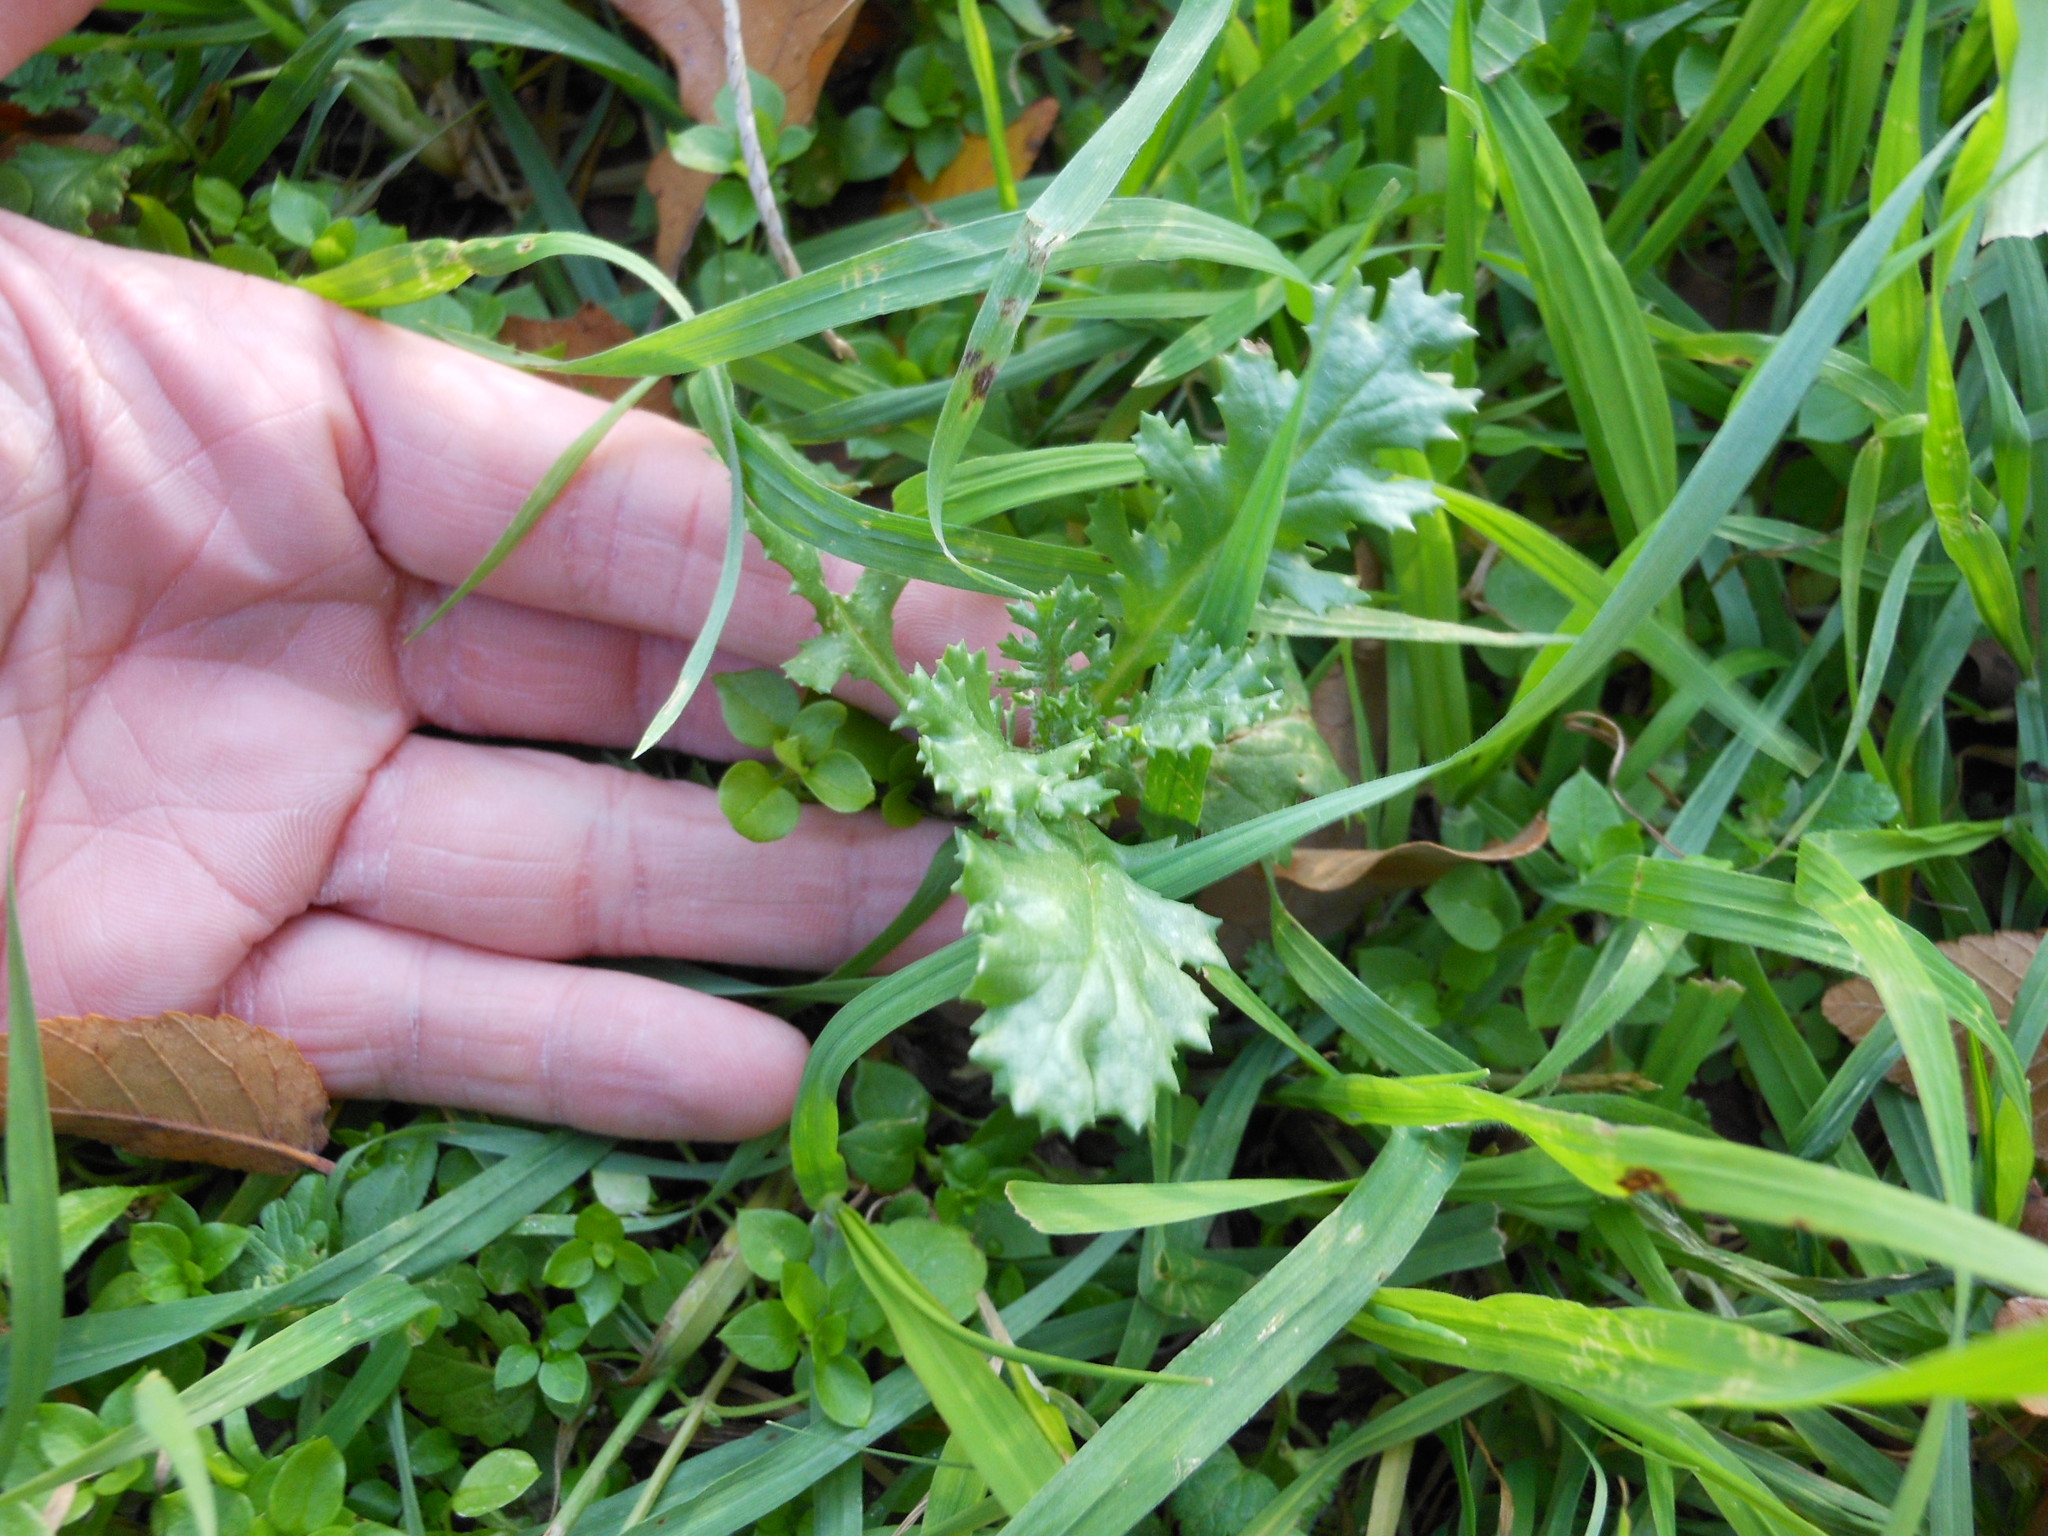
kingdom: Plantae
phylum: Tracheophyta
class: Magnoliopsida
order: Asterales
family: Asteraceae
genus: Senecio
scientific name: Senecio vulgaris
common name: Old-man-in-the-spring
